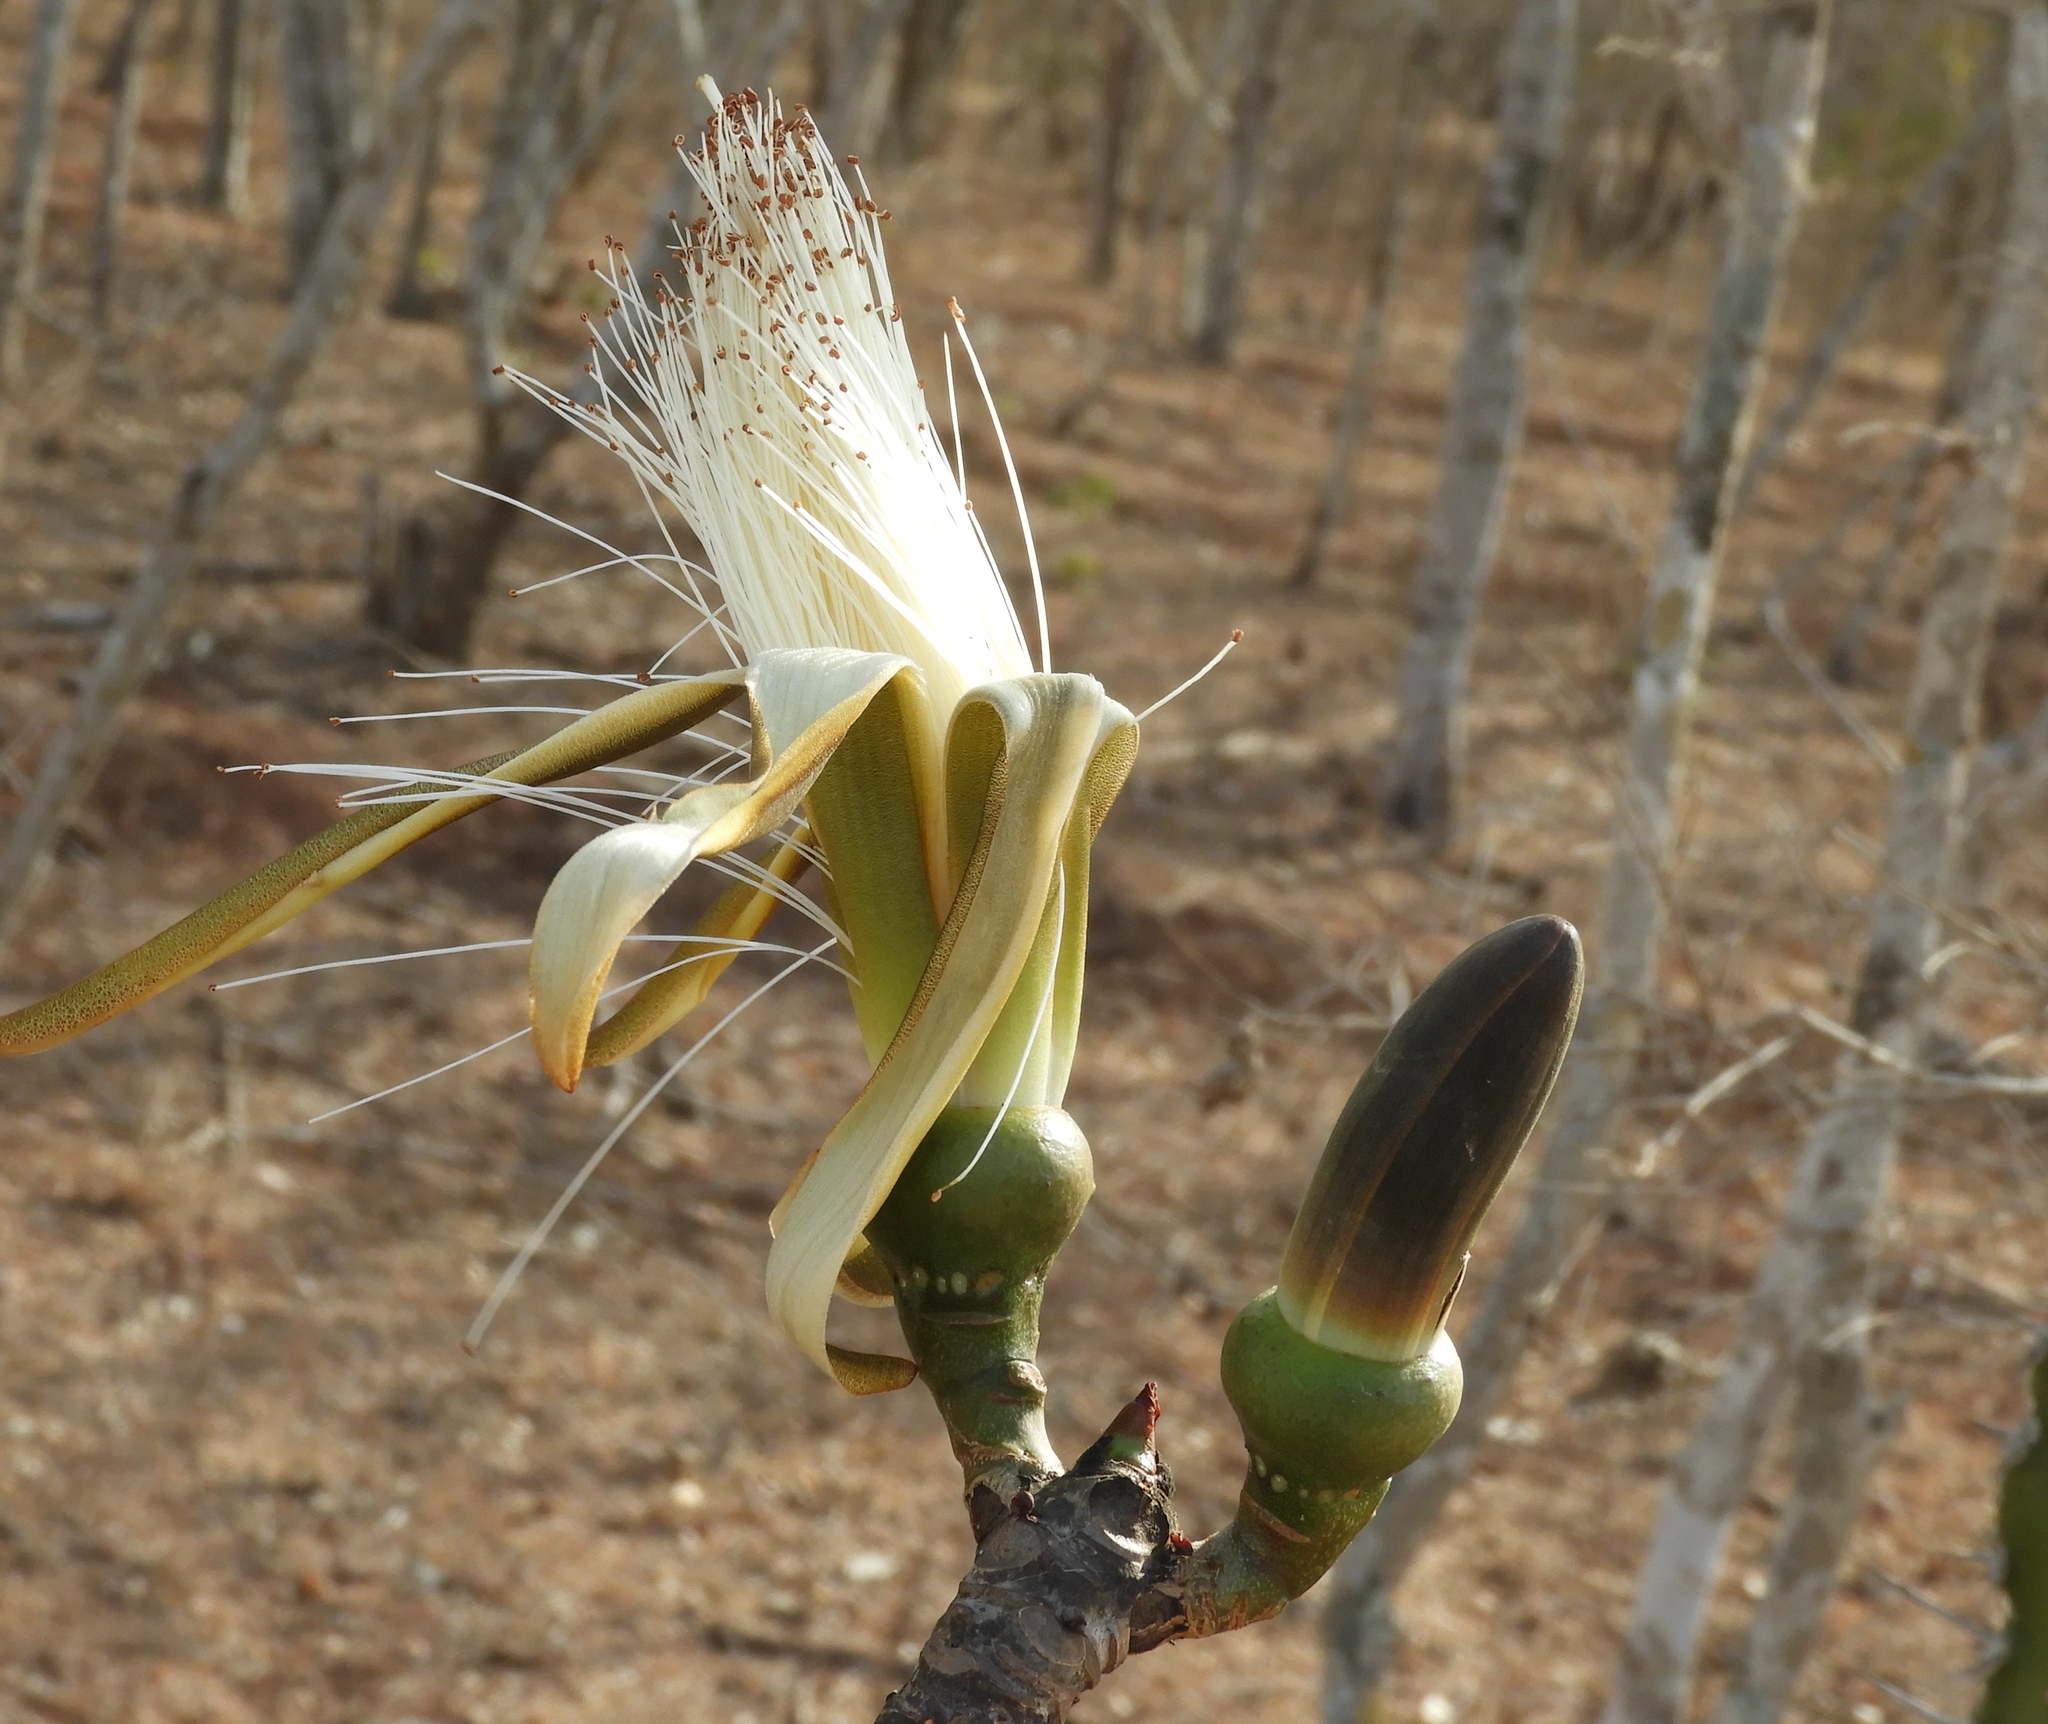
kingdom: Plantae
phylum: Tracheophyta
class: Magnoliopsida
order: Malvales
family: Malvaceae
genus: Pseudobombax
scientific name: Pseudobombax palmeri
